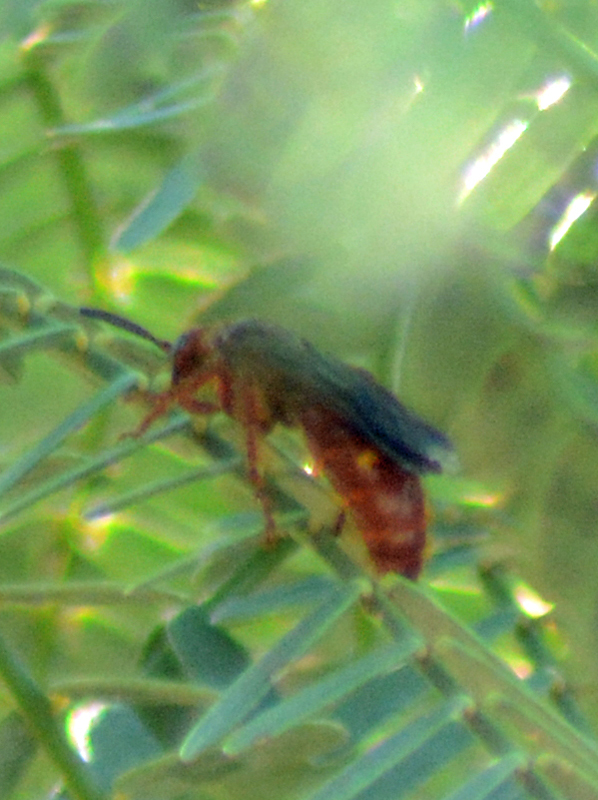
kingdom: Animalia
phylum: Arthropoda
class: Insecta
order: Hymenoptera
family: Scoliidae
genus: Scolia
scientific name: Scolia nobilitata
